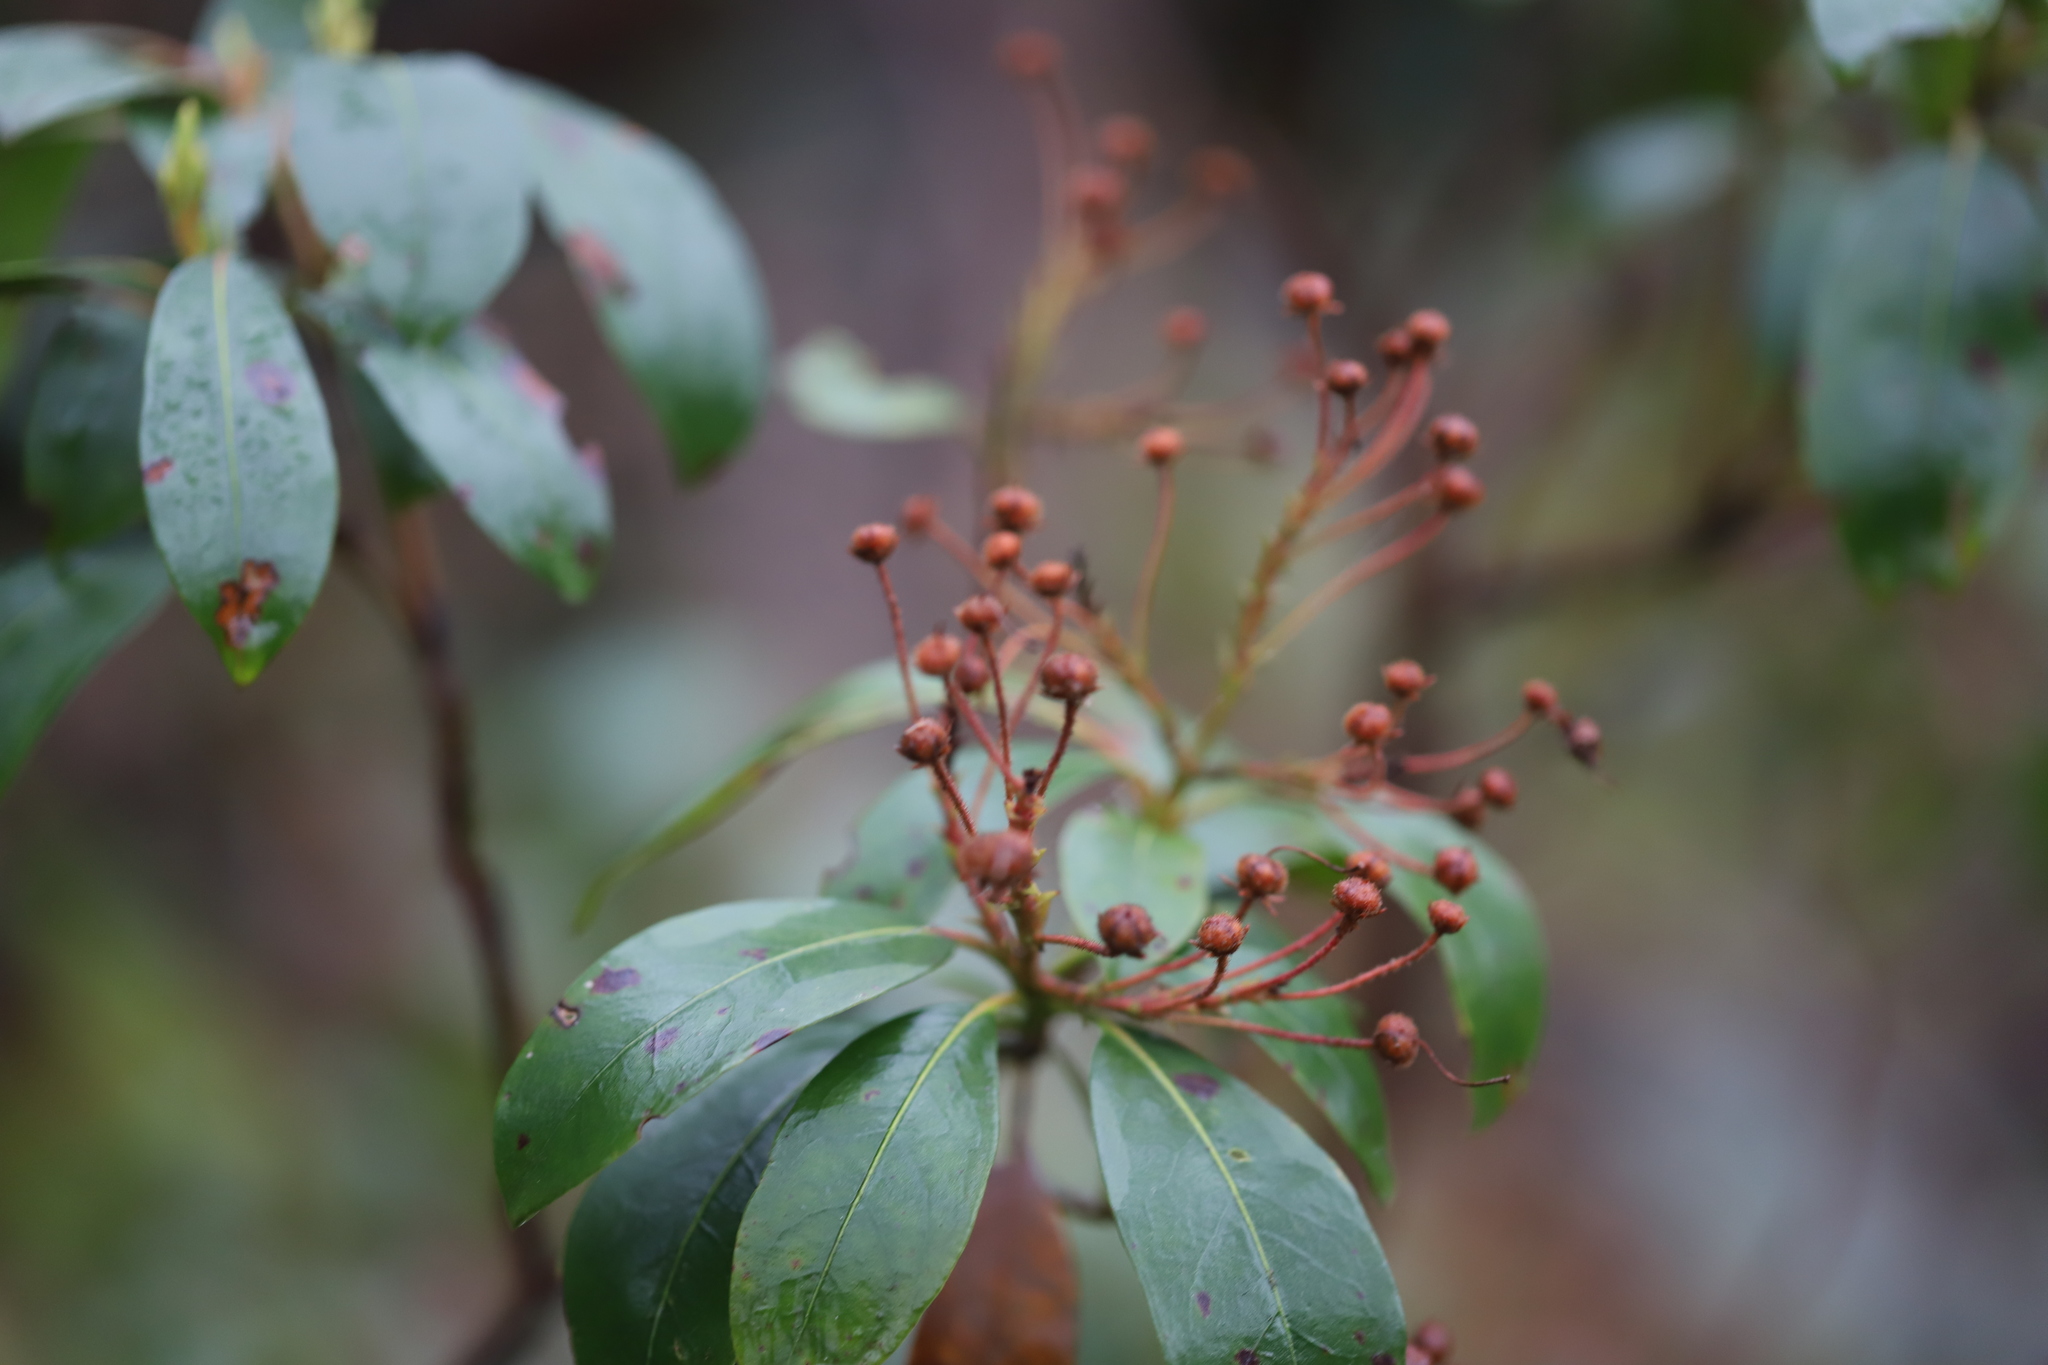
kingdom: Plantae
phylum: Tracheophyta
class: Magnoliopsida
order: Ericales
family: Ericaceae
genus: Kalmia
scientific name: Kalmia latifolia
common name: Mountain-laurel
